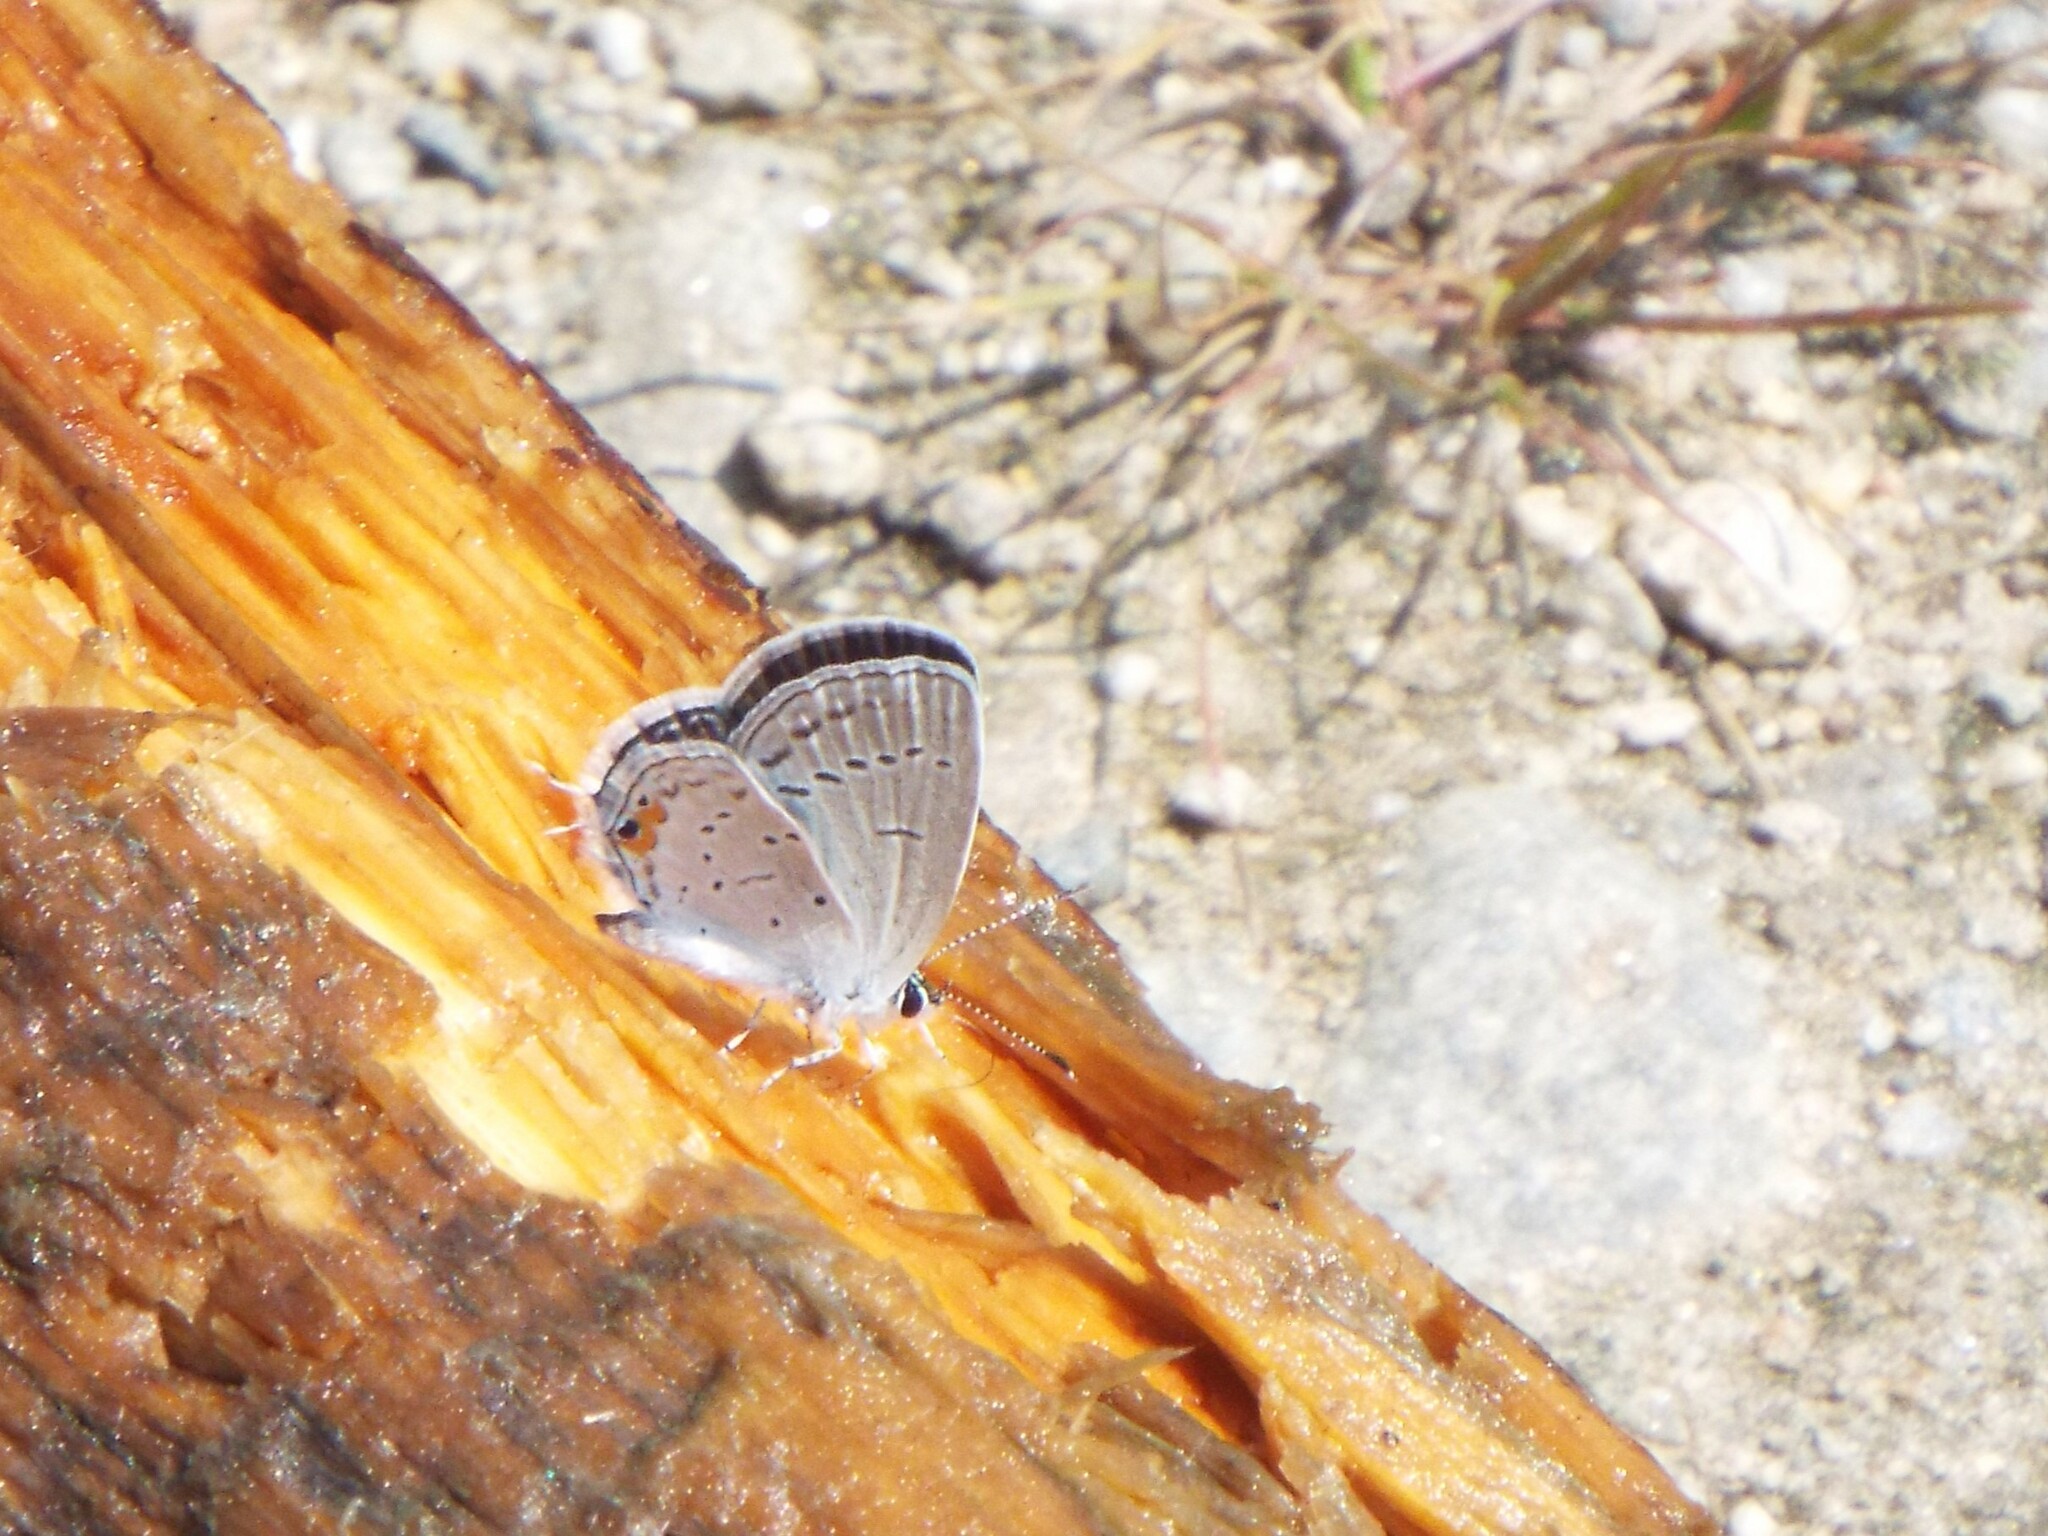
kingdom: Animalia
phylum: Arthropoda
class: Insecta
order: Lepidoptera
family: Lycaenidae
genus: Elkalyce
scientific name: Elkalyce comyntas
